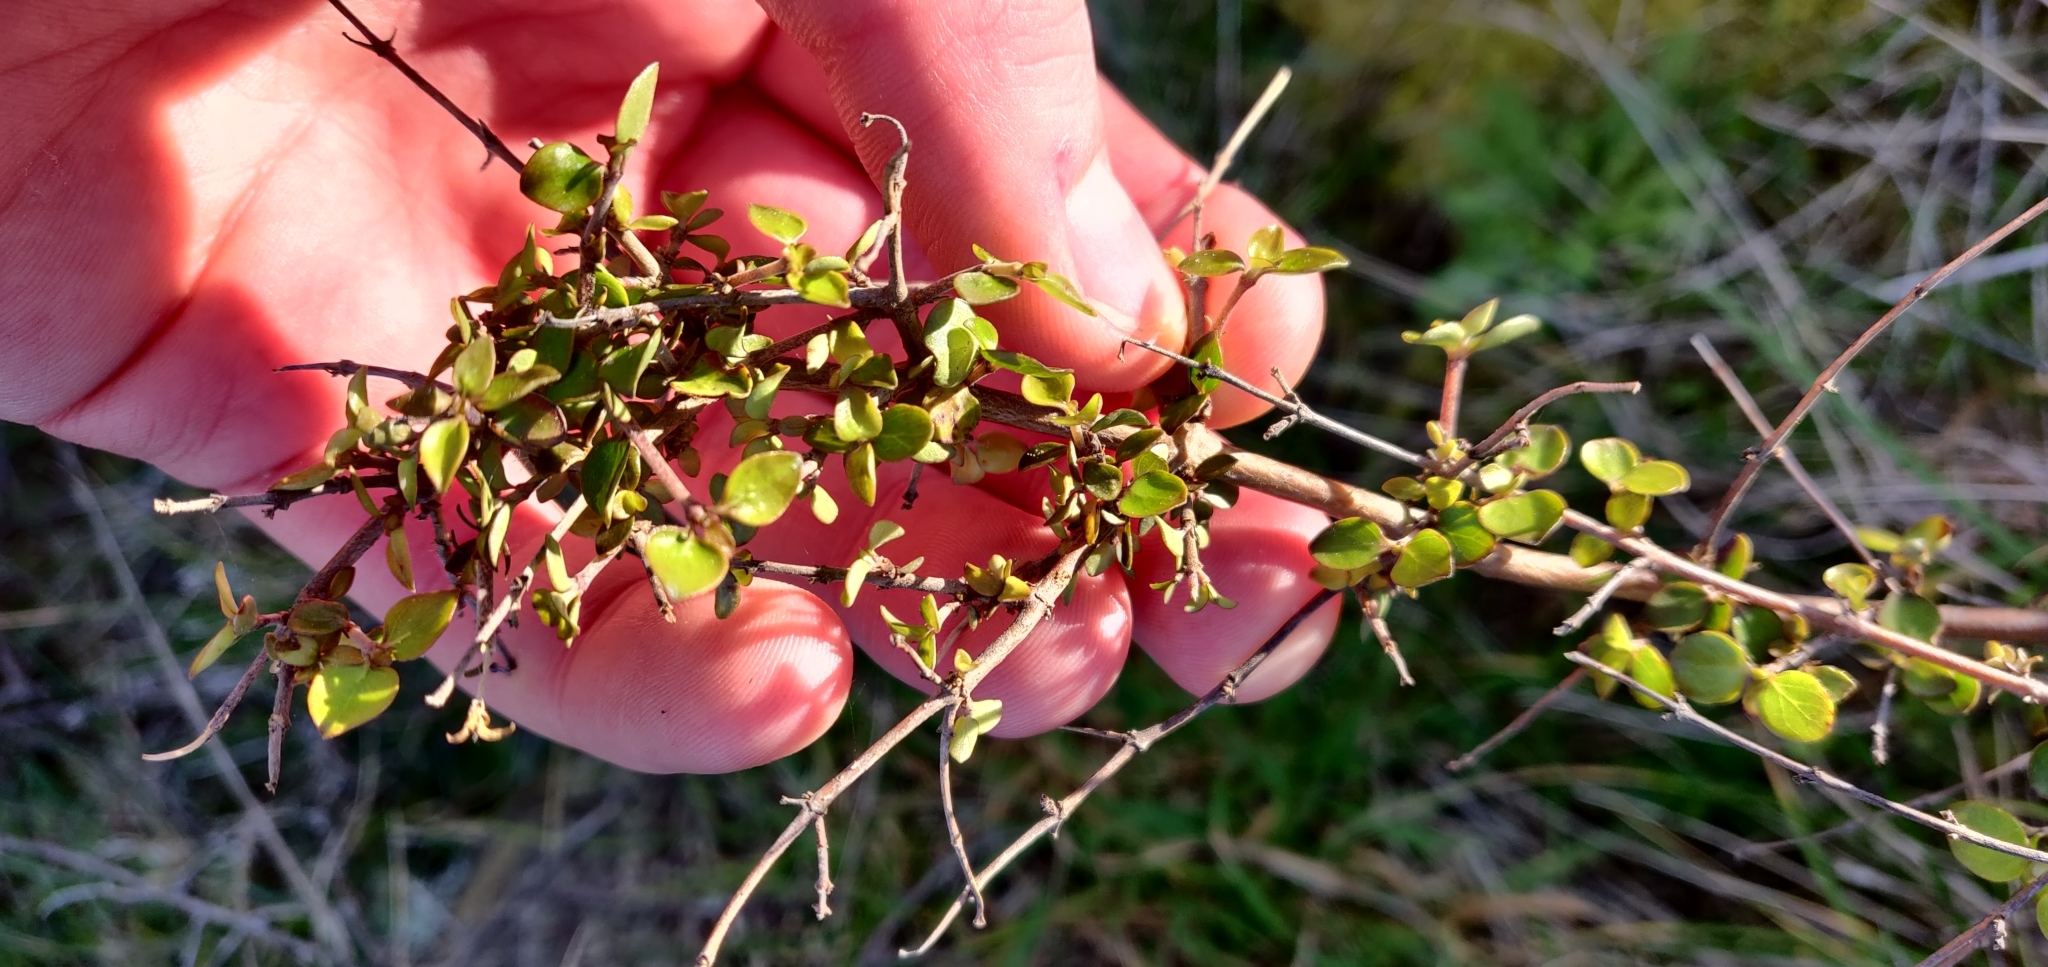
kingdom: Plantae
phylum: Tracheophyta
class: Magnoliopsida
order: Gentianales
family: Rubiaceae
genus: Coprosma
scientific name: Coprosma rhamnoides
